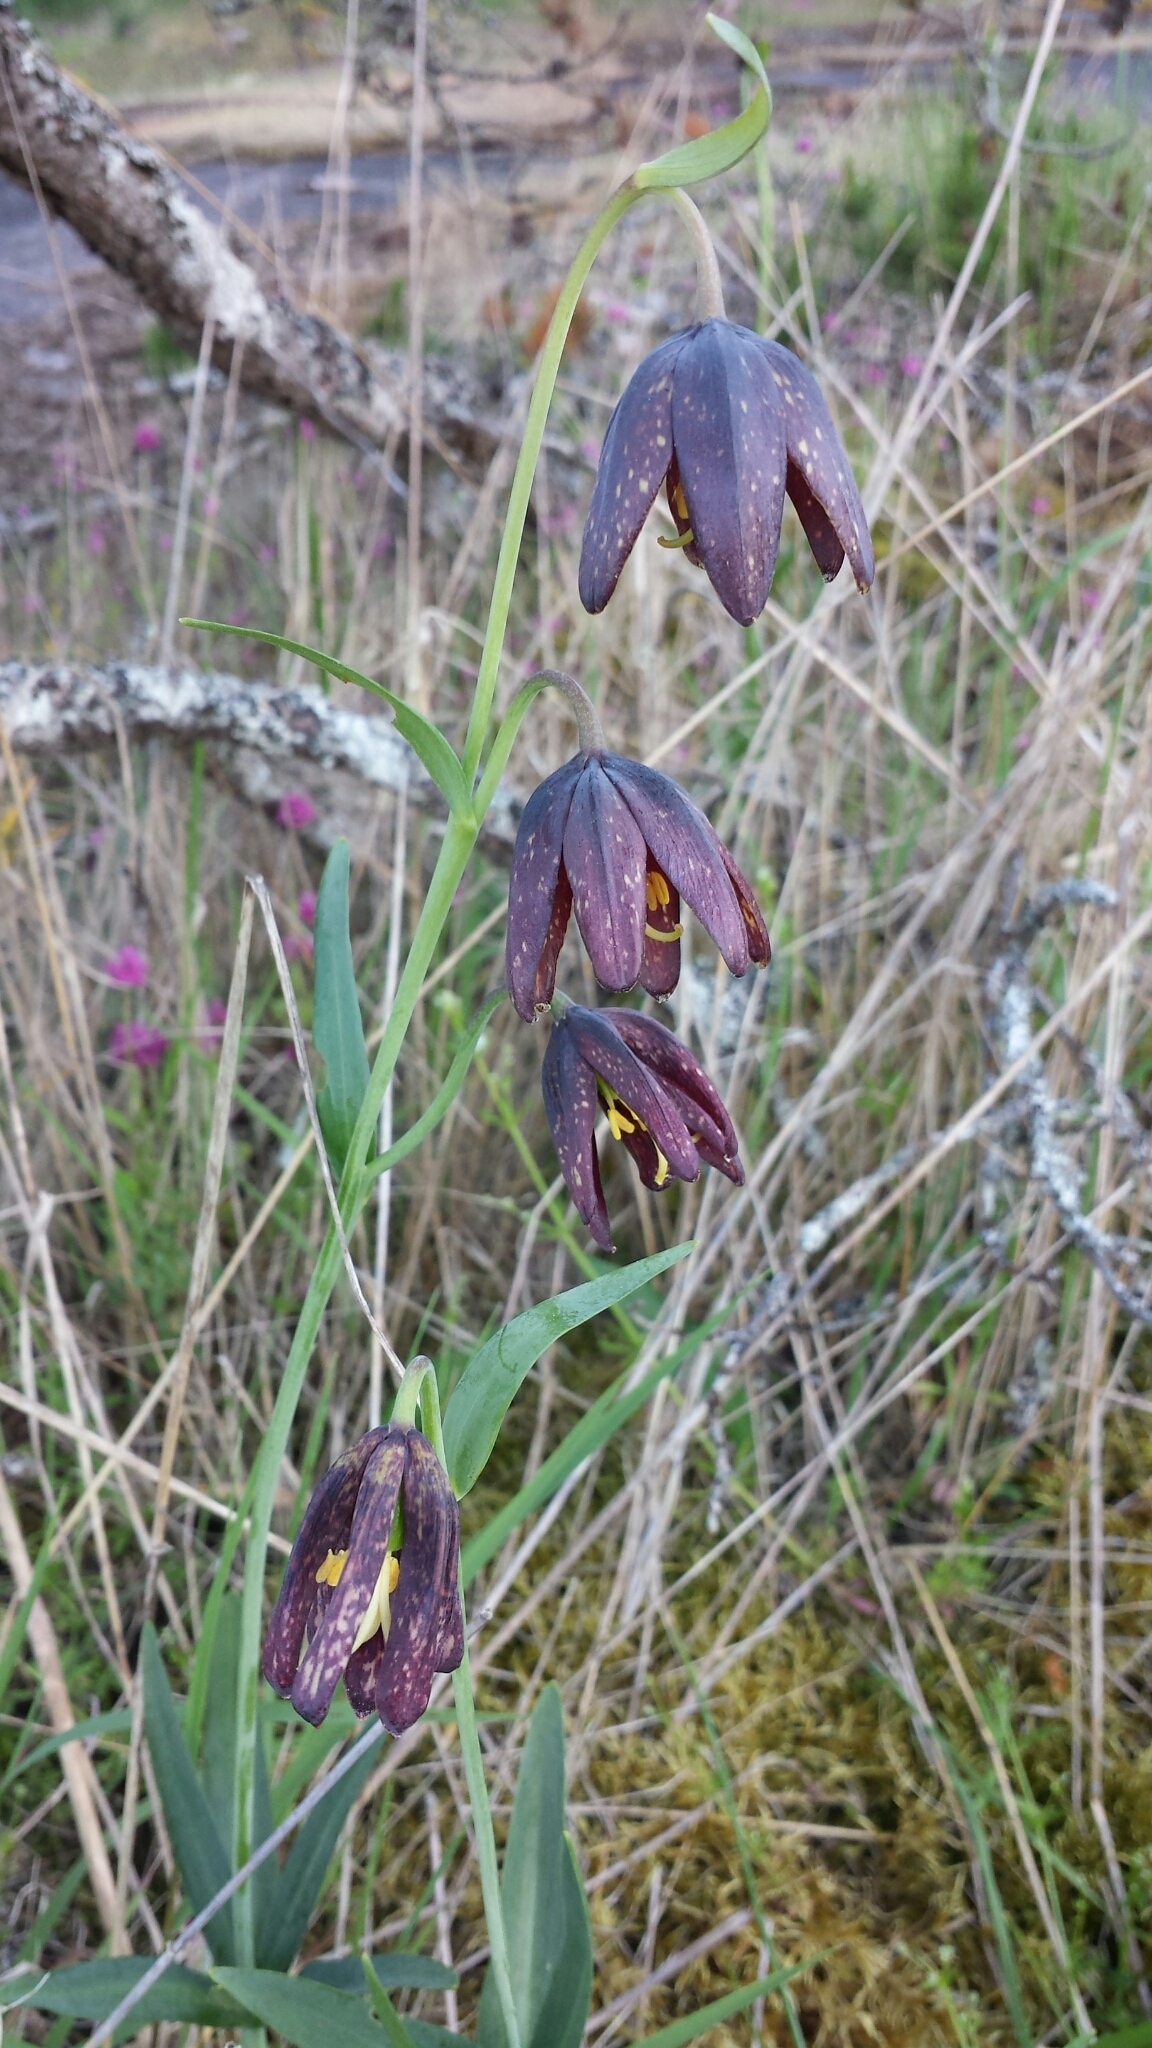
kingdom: Plantae
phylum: Tracheophyta
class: Liliopsida
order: Liliales
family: Liliaceae
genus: Fritillaria
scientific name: Fritillaria affinis
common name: Ojai fritillary
